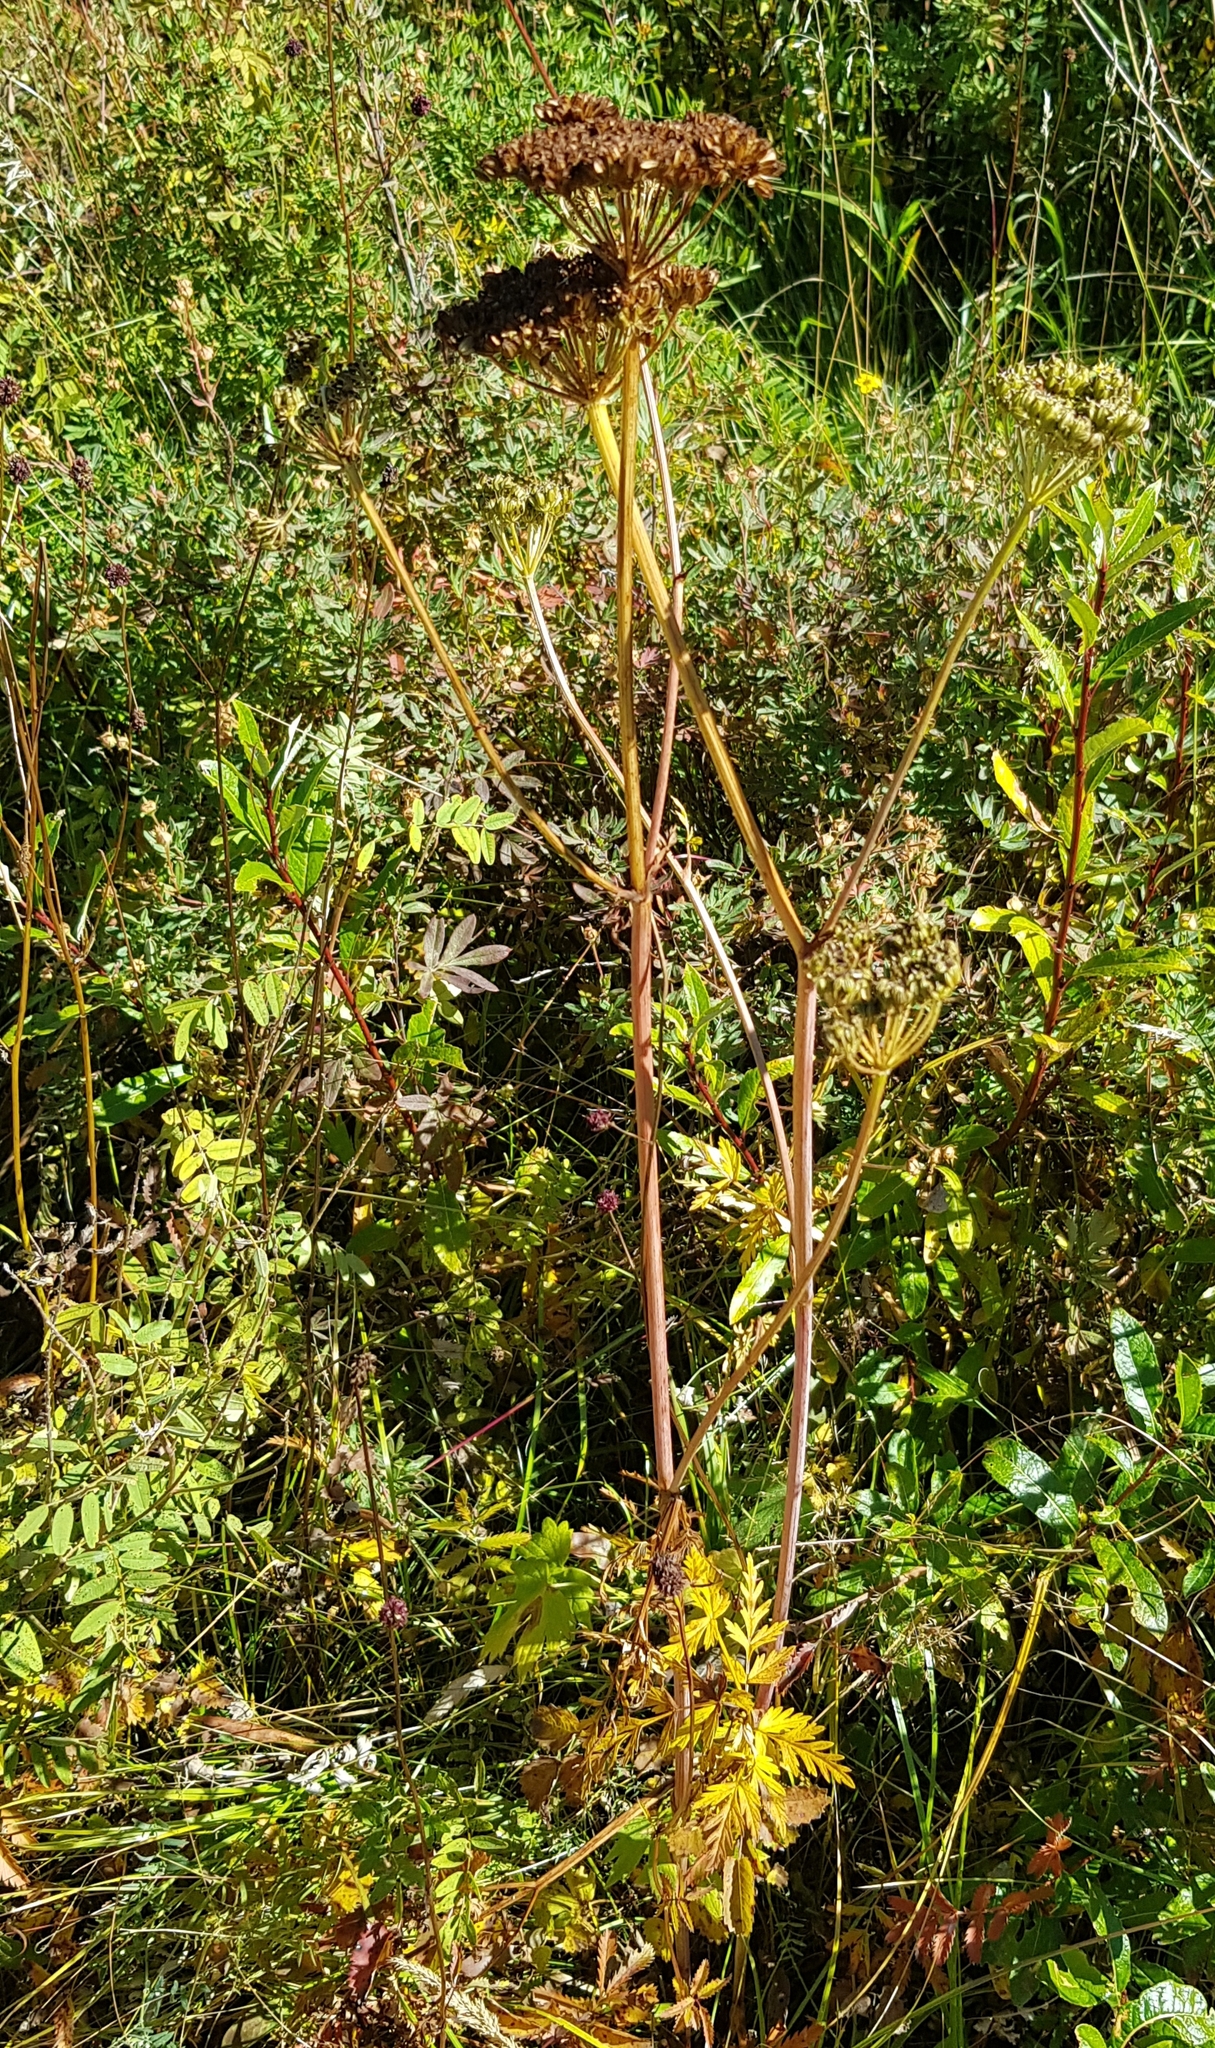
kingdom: Plantae
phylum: Tracheophyta
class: Magnoliopsida
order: Apiales
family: Apiaceae
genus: Conioselinum
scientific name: Conioselinum tataricum
